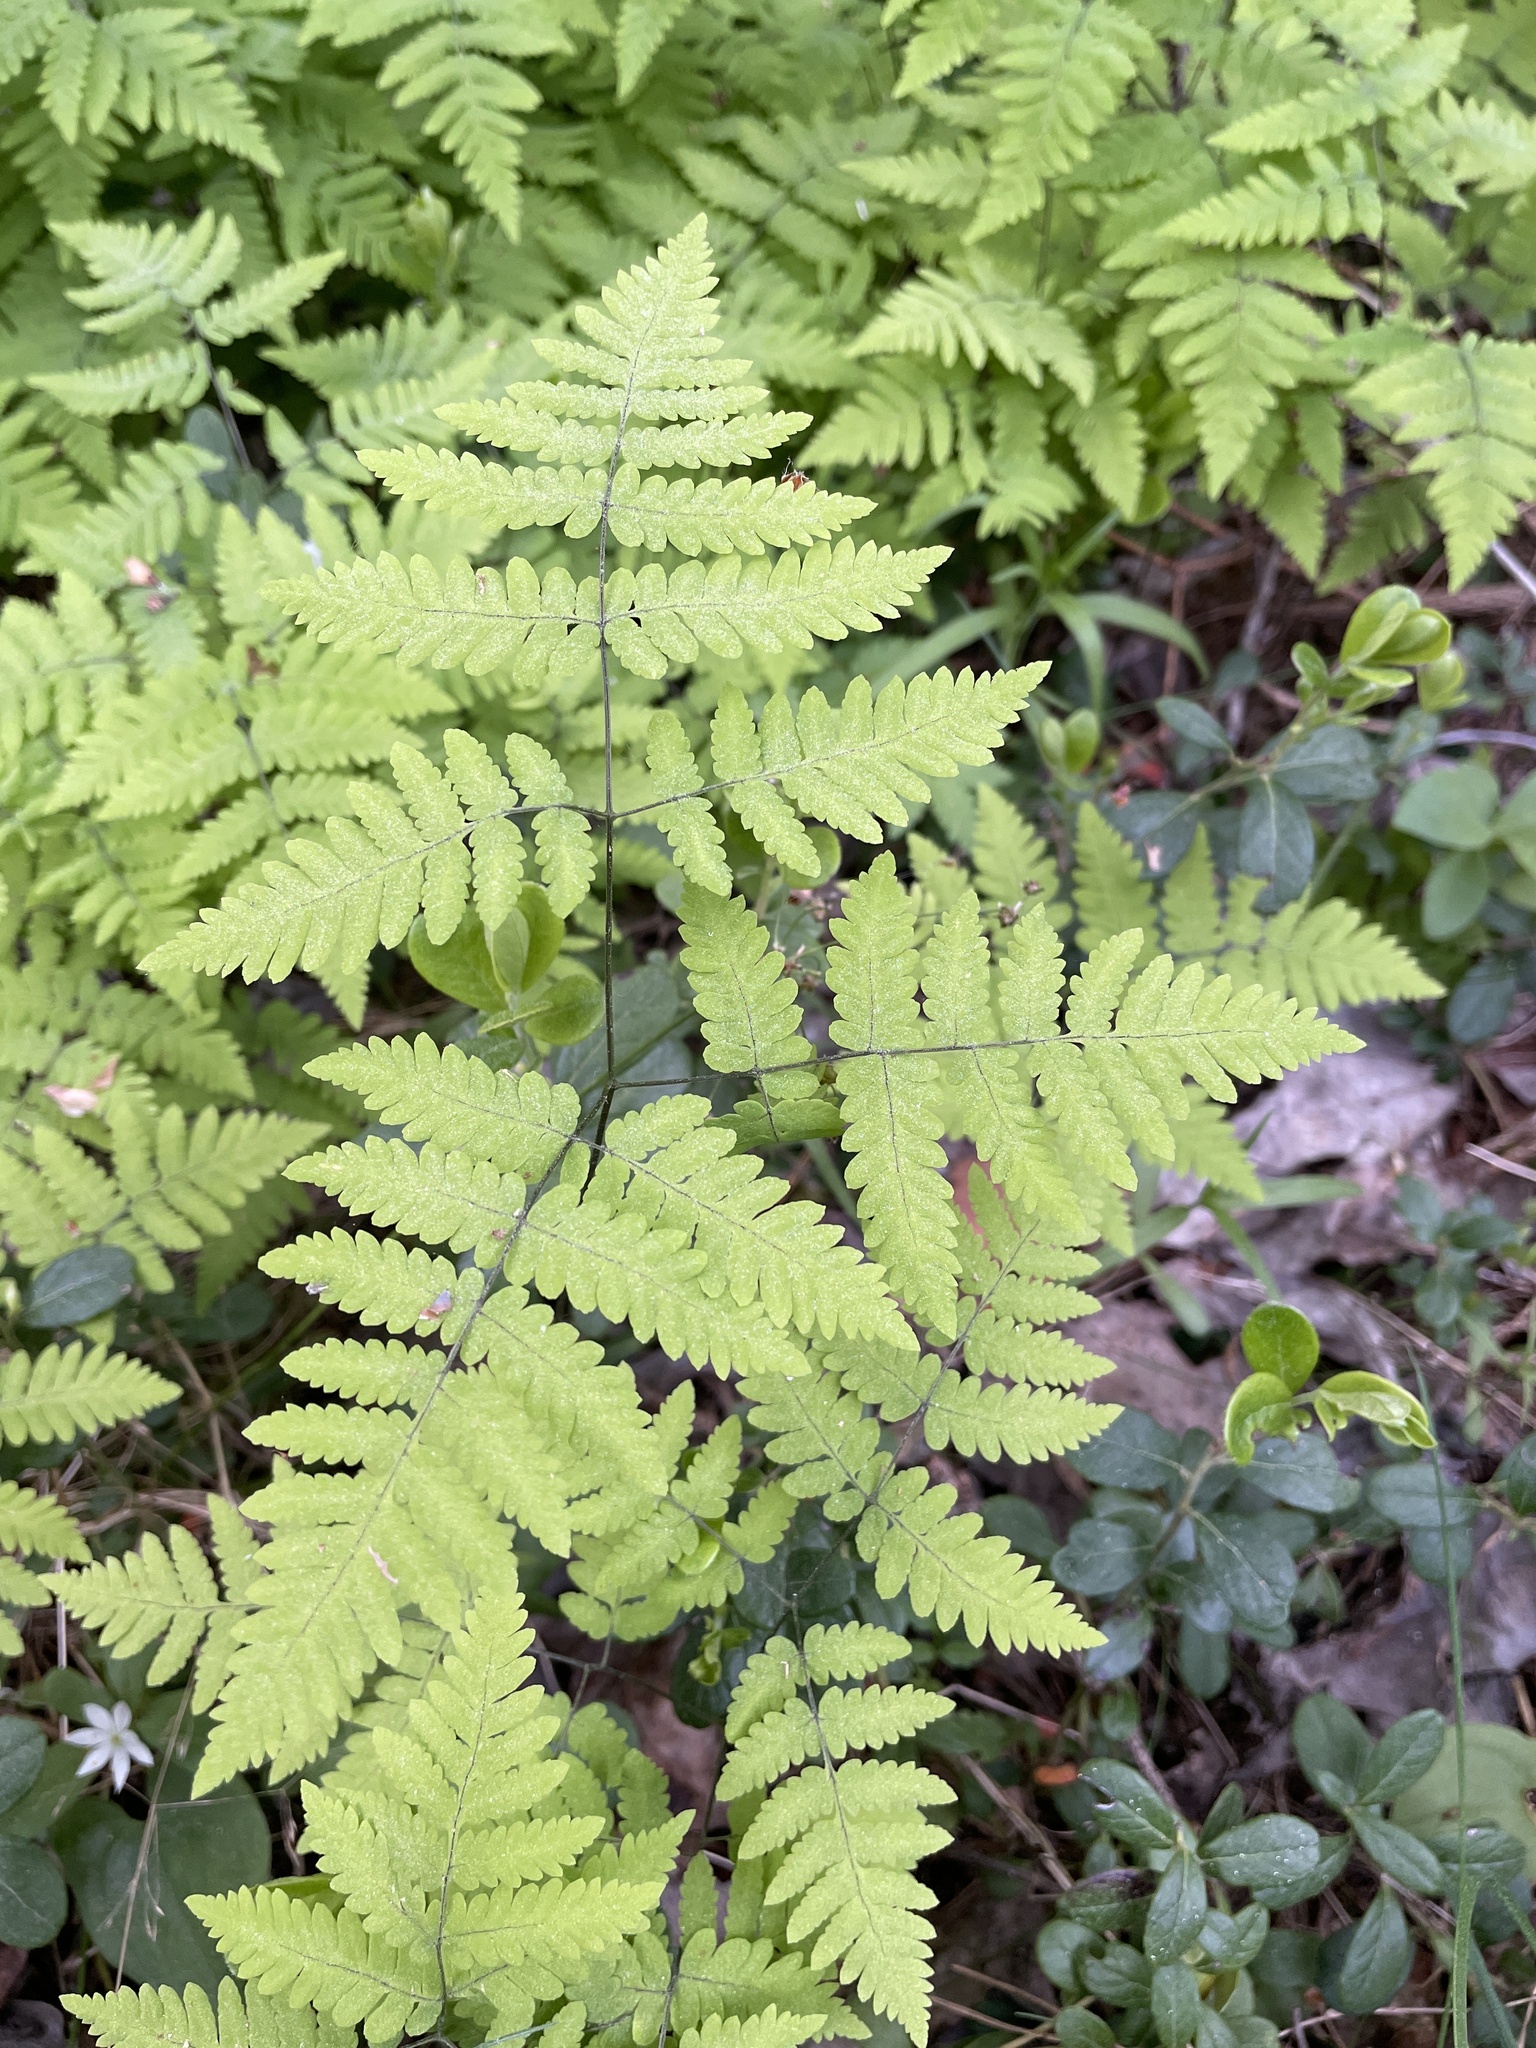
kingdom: Plantae
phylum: Tracheophyta
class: Polypodiopsida
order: Polypodiales
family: Cystopteridaceae
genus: Gymnocarpium
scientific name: Gymnocarpium dryopteris
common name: Oak fern
